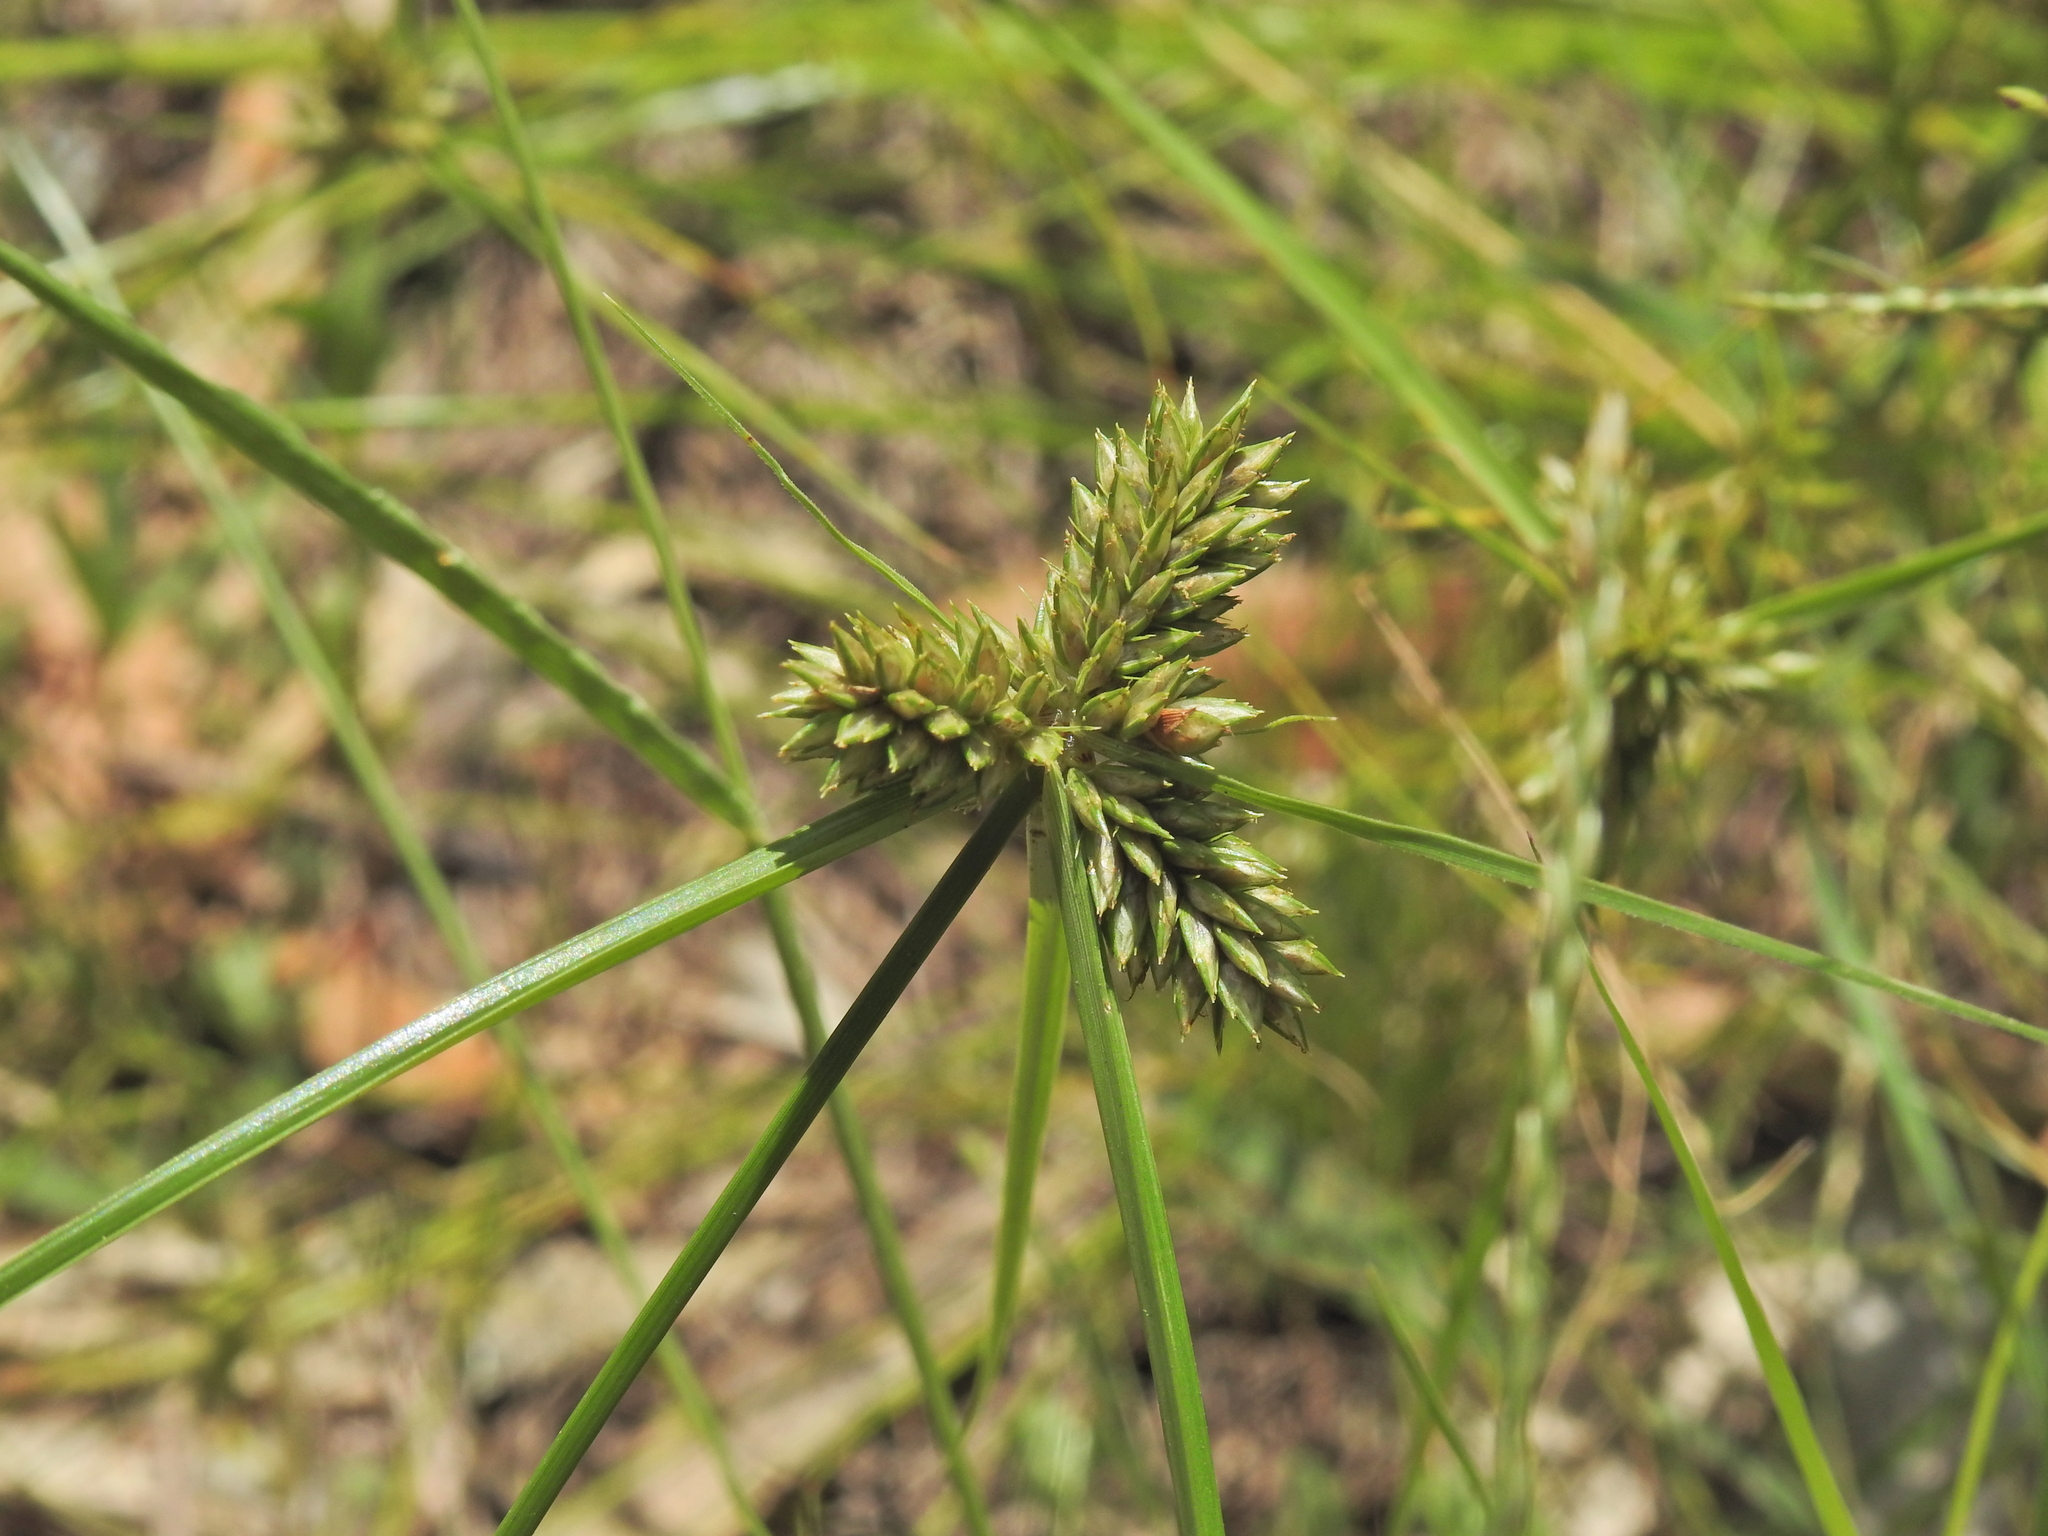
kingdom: Plantae
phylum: Tracheophyta
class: Liliopsida
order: Poales
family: Cyperaceae
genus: Cyperus
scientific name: Cyperus aggregatus
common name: Inflatedscale flatsedge
